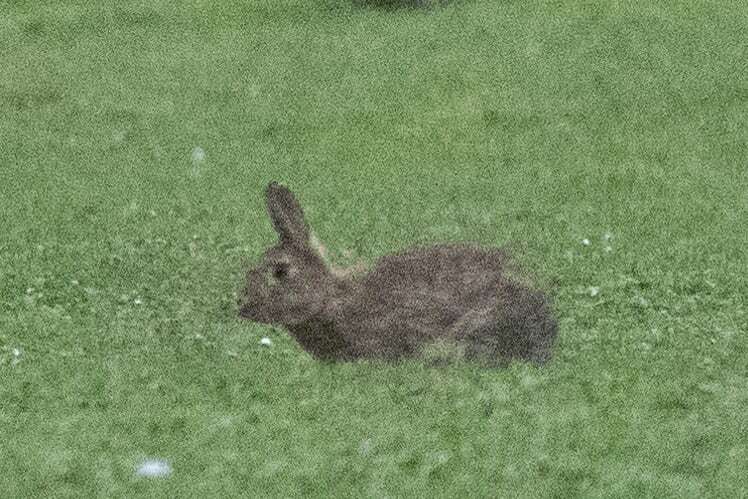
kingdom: Animalia
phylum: Chordata
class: Mammalia
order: Lagomorpha
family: Leporidae
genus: Oryctolagus
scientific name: Oryctolagus cuniculus
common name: European rabbit
